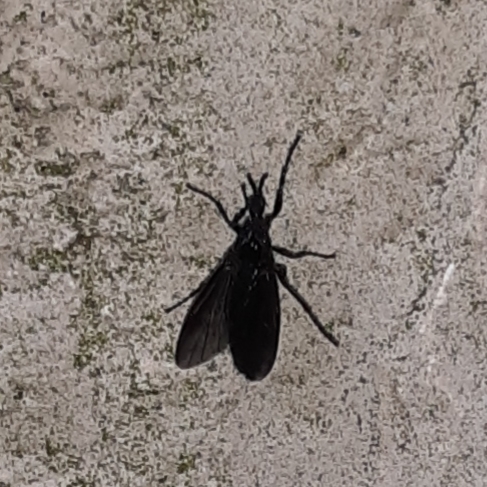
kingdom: Animalia
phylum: Arthropoda
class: Insecta
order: Diptera
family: Bibionidae
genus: Dilophus
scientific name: Dilophus orbatus
